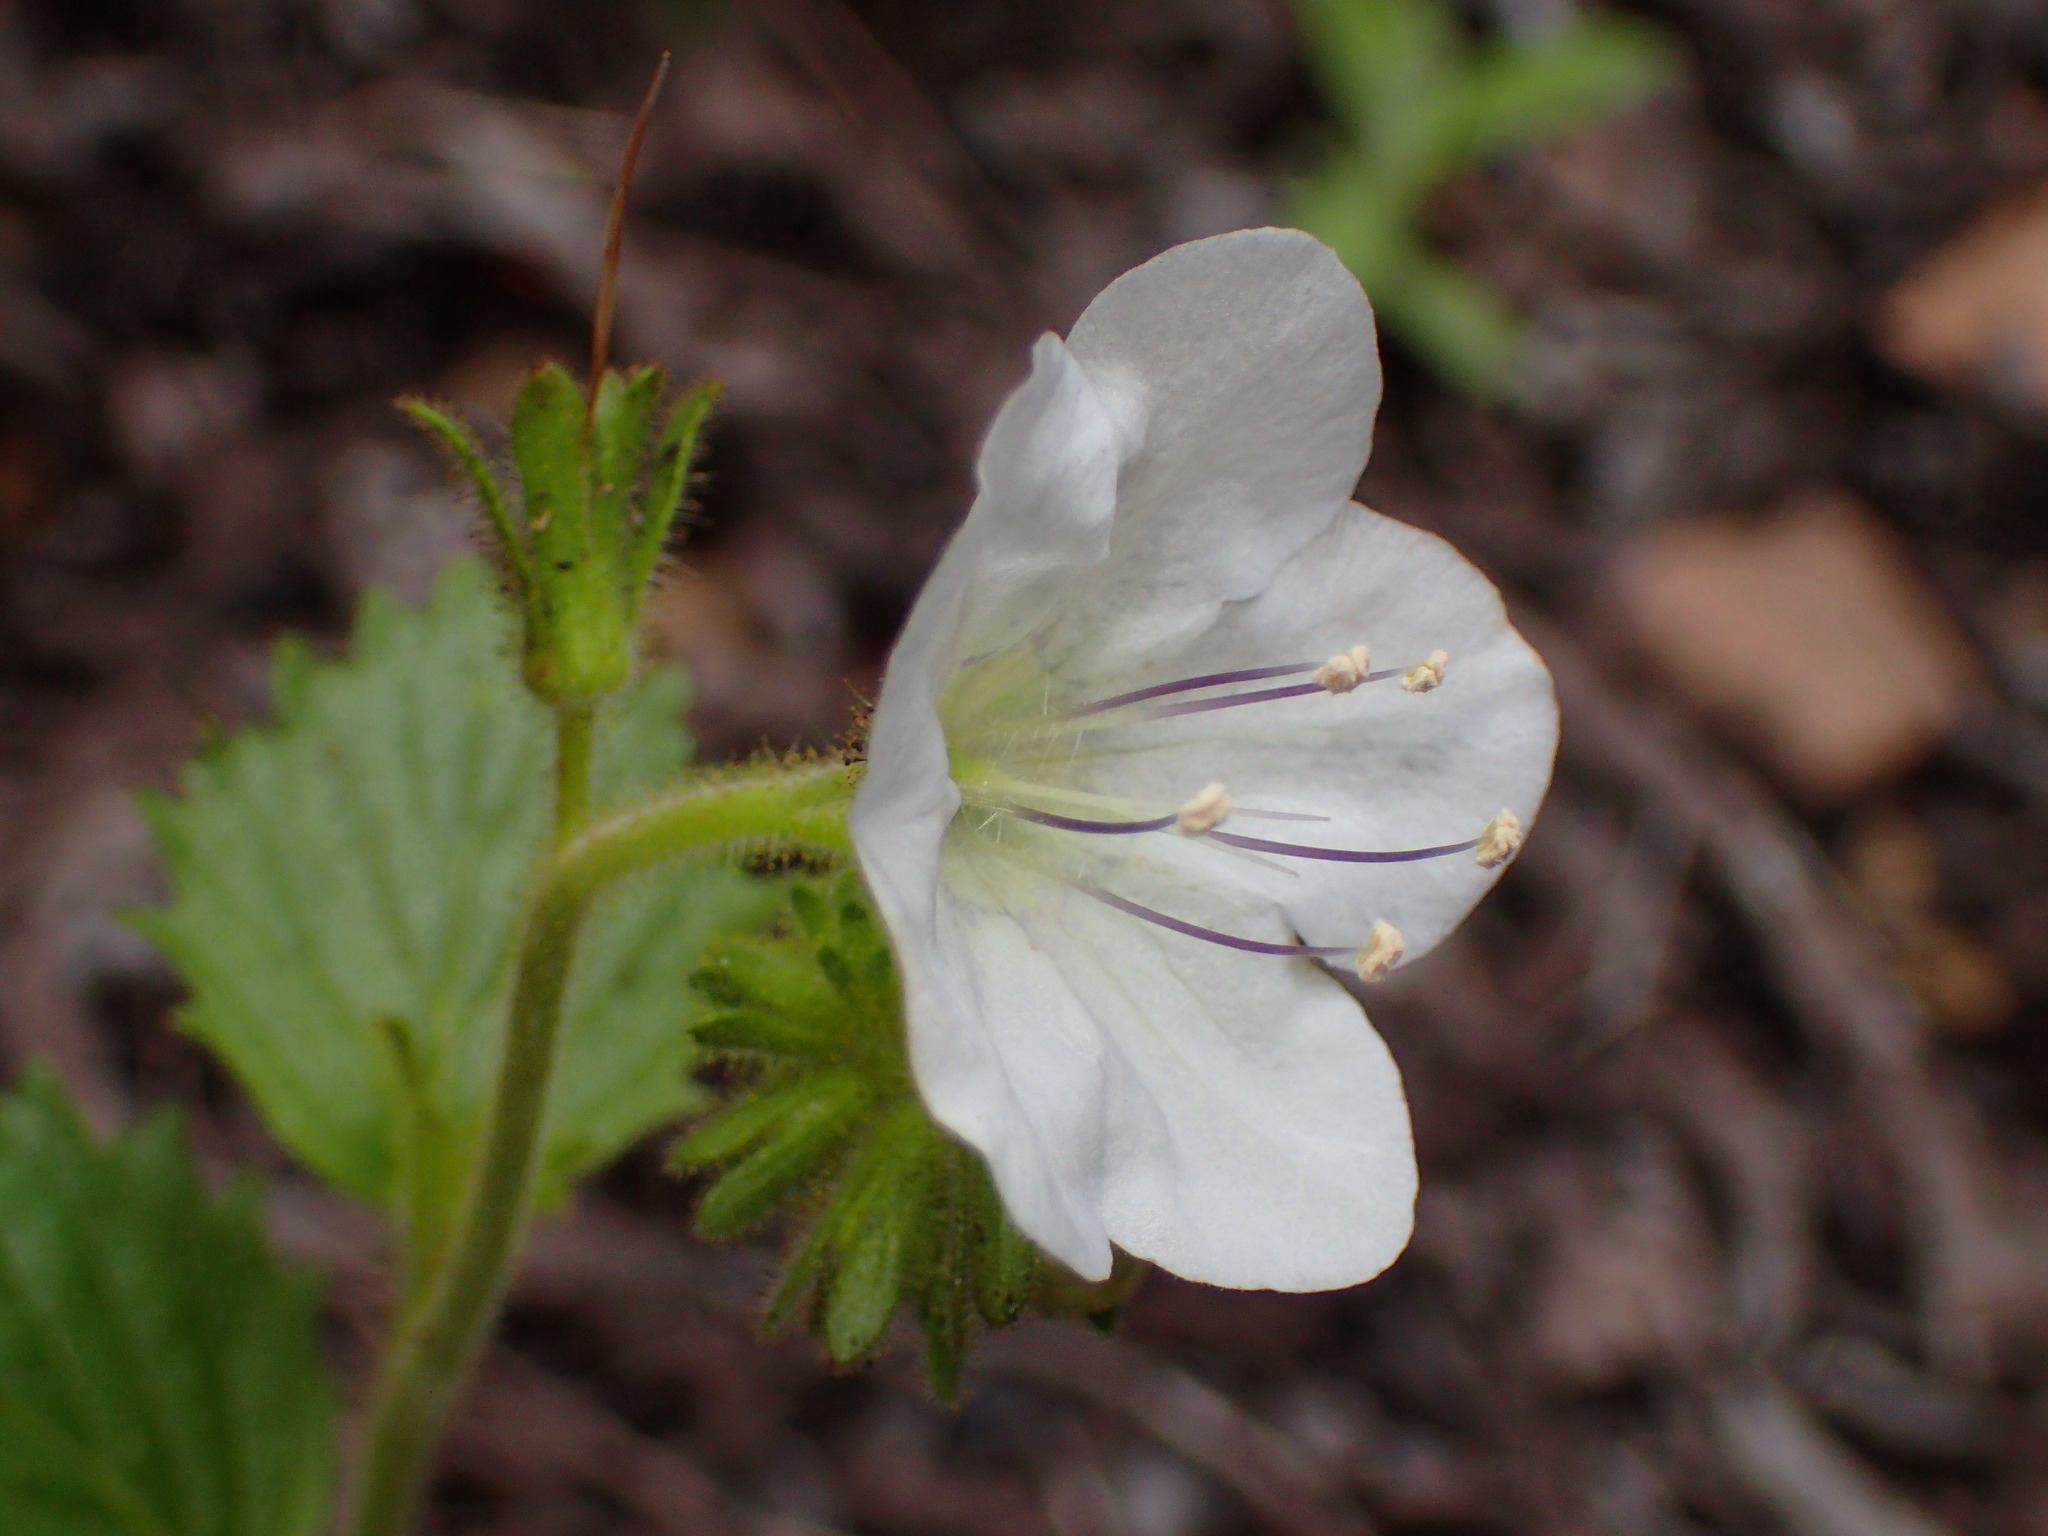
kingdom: Plantae
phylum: Tracheophyta
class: Magnoliopsida
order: Boraginales
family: Hydrophyllaceae
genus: Phacelia
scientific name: Phacelia grandiflora
